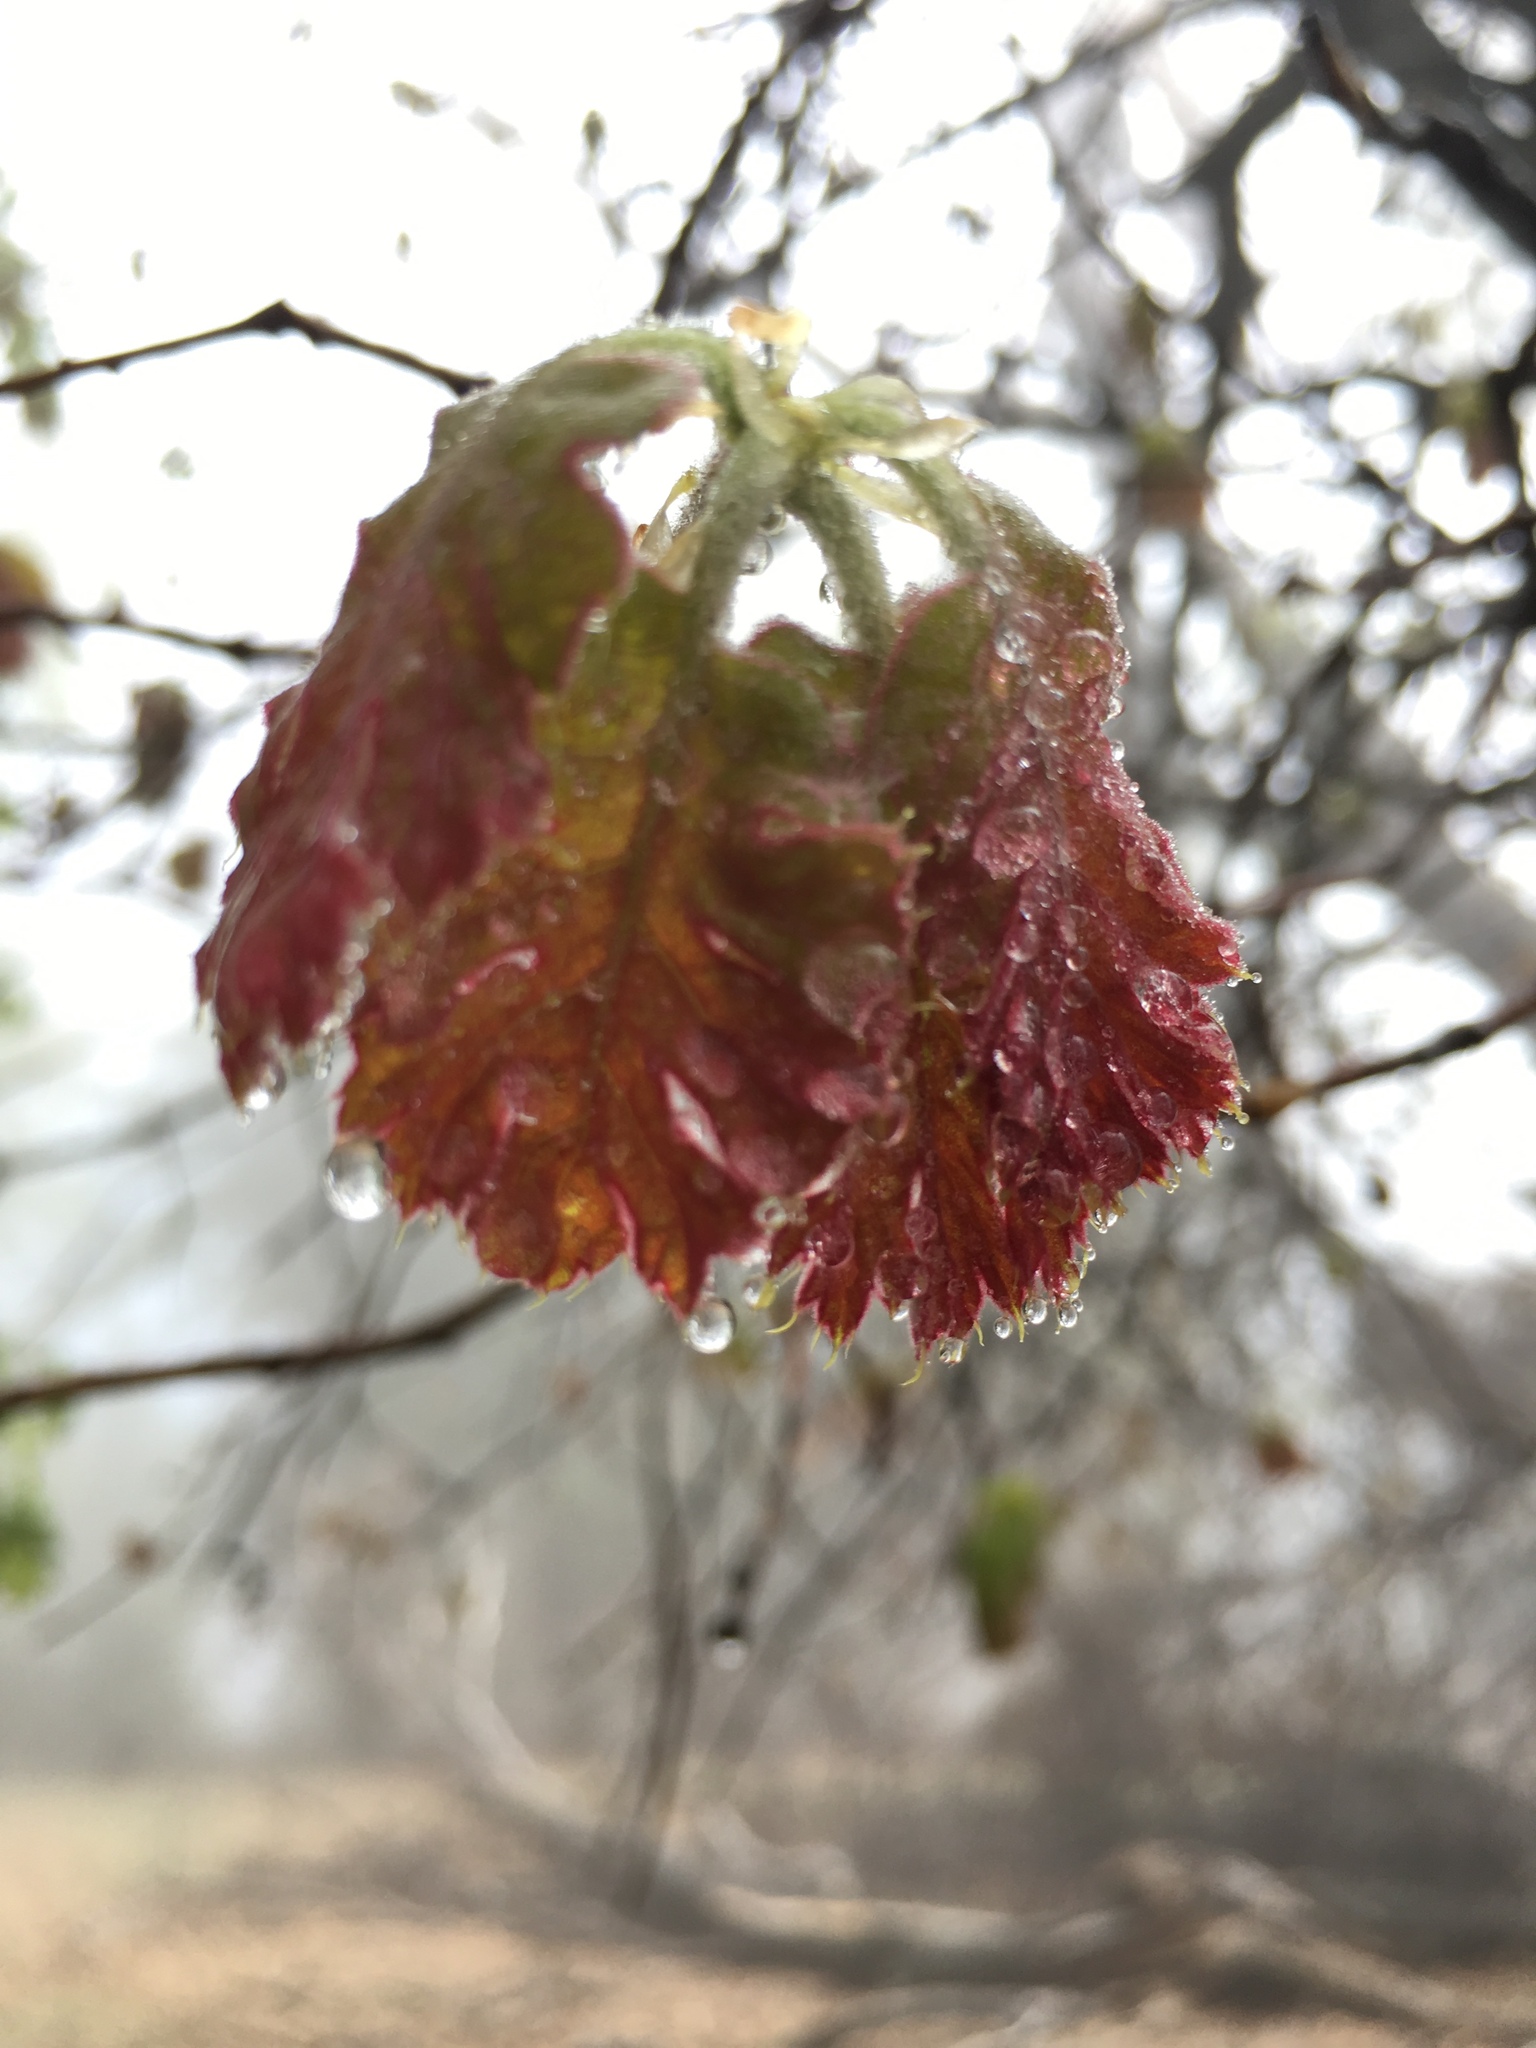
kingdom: Plantae
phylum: Tracheophyta
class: Magnoliopsida
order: Fagales
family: Fagaceae
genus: Quercus
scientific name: Quercus kelloggii
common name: California black oak
